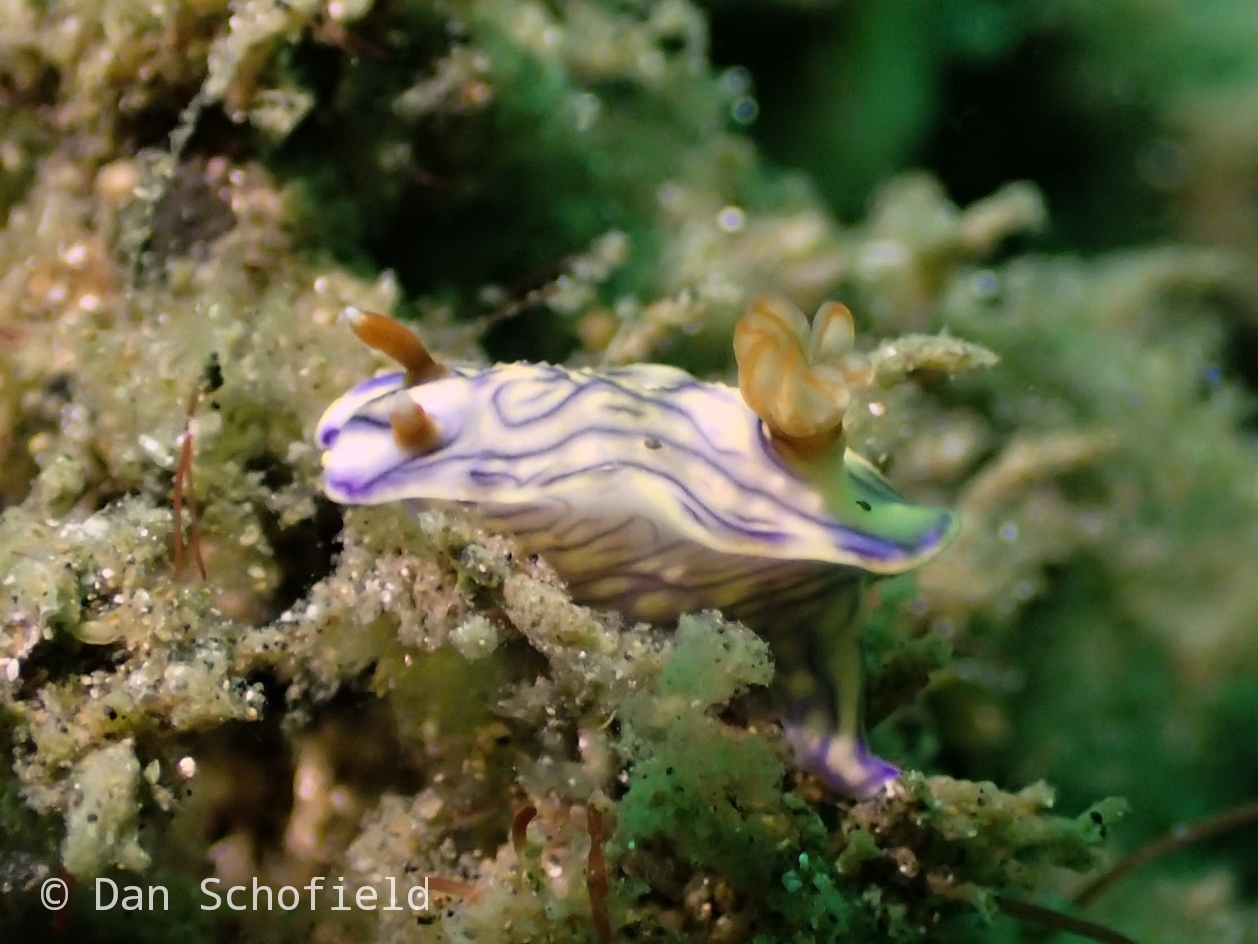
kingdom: Animalia
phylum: Mollusca
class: Gastropoda
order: Nudibranchia
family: Chromodorididae
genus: Hypselodoris
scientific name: Hypselodoris zephyra
